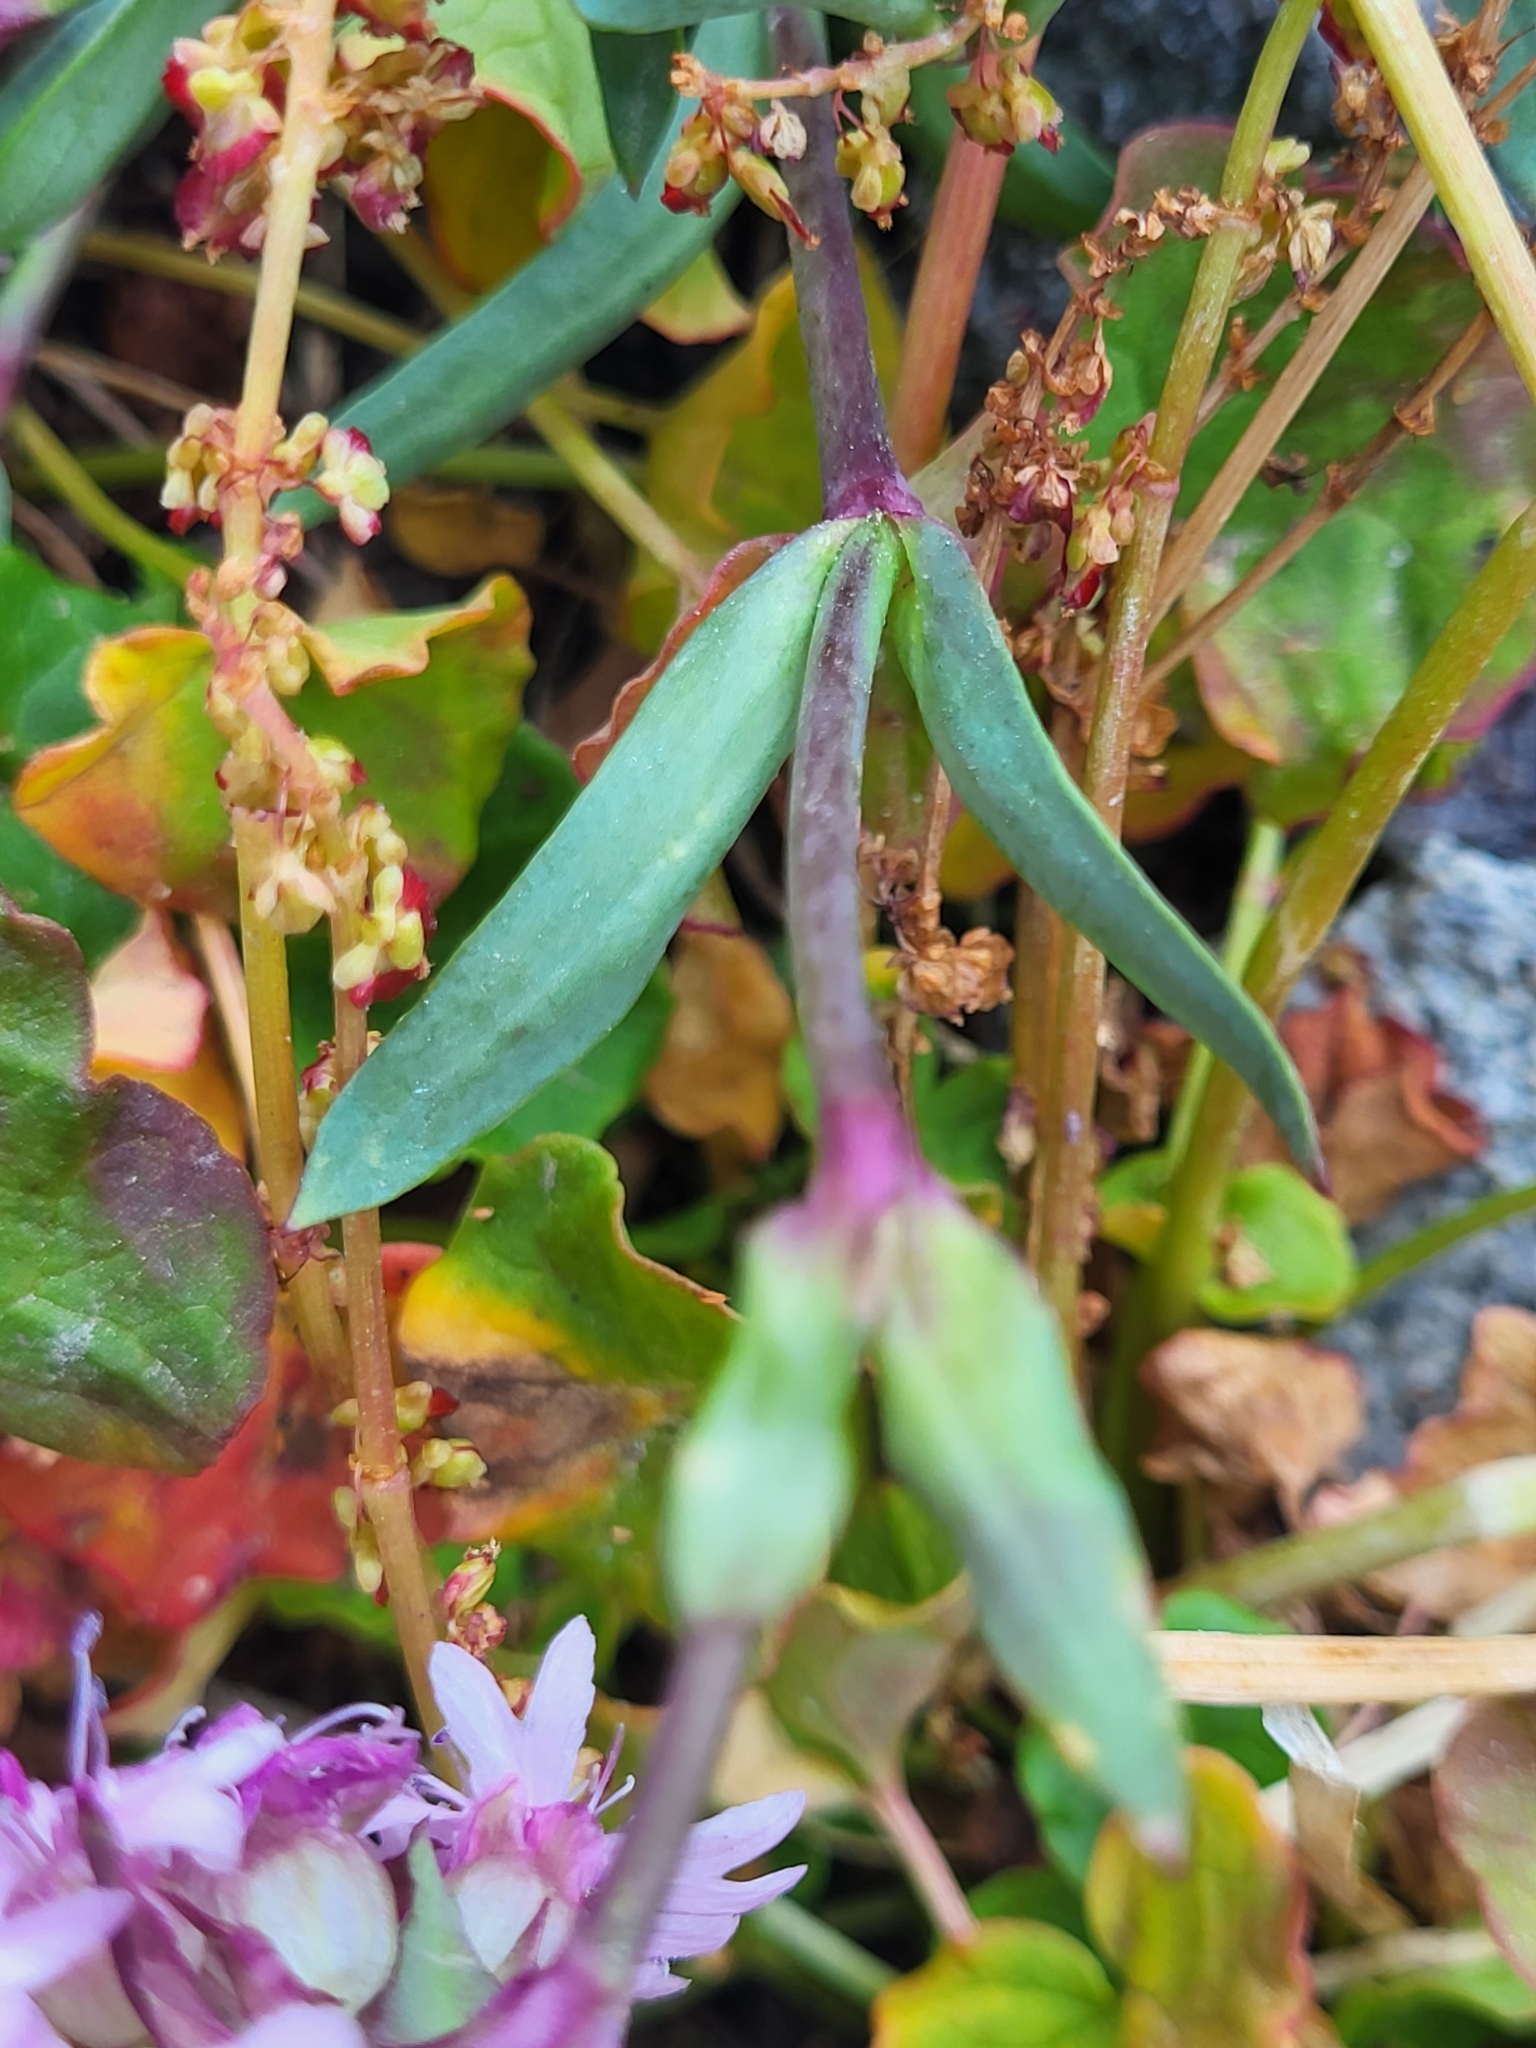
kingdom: Plantae
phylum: Tracheophyta
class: Magnoliopsida
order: Caryophyllales
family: Caryophyllaceae
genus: Viscaria
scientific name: Viscaria alpina
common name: Alpine campion
